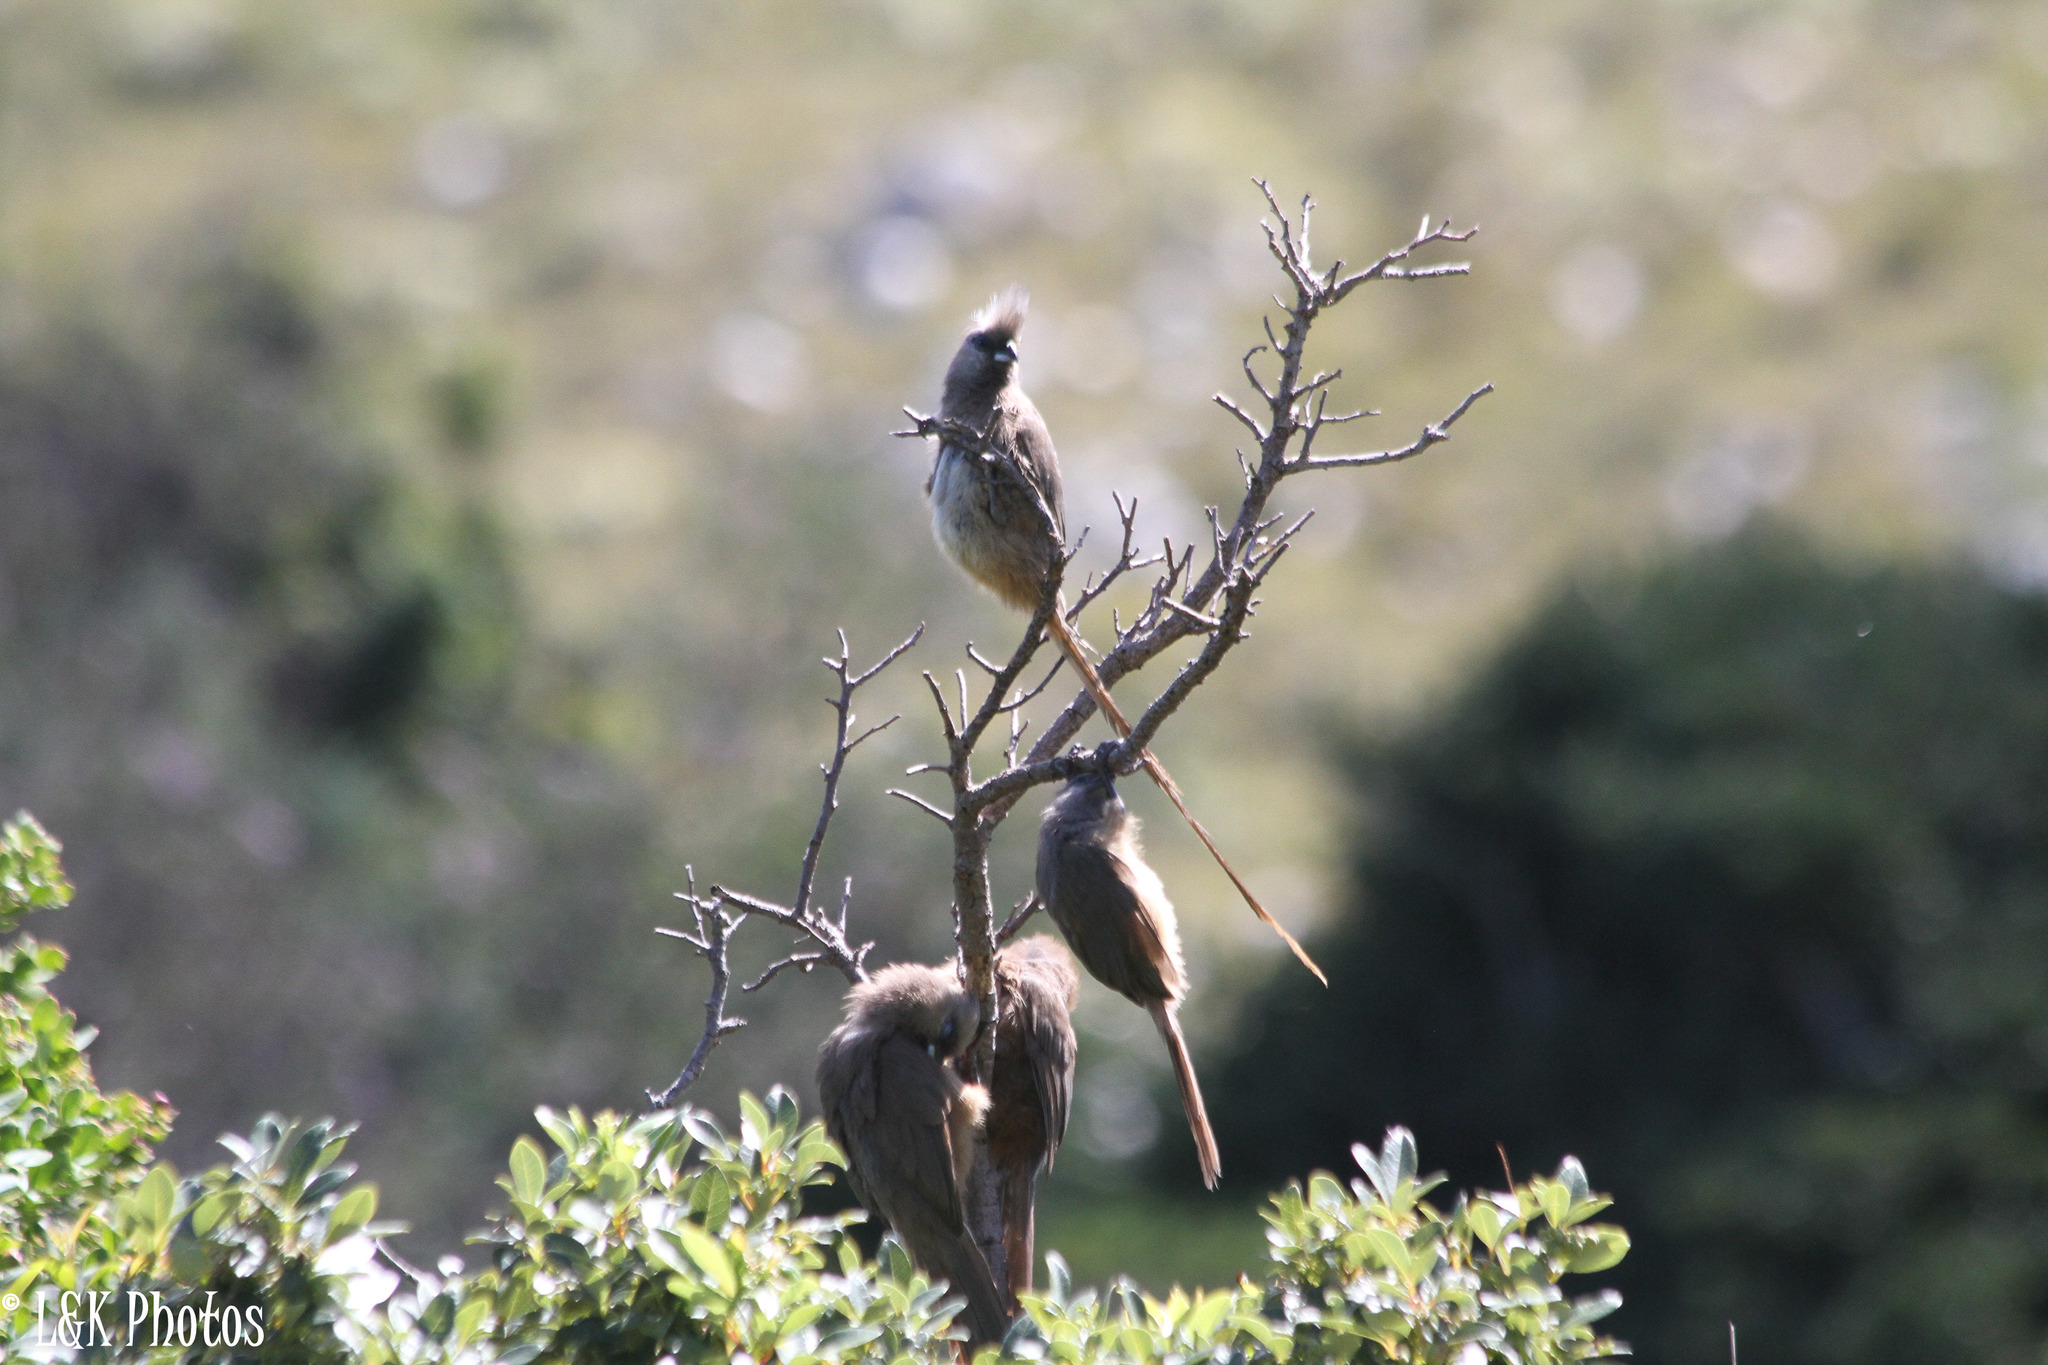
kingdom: Animalia
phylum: Chordata
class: Aves
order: Coliiformes
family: Coliidae
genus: Colius
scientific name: Colius striatus
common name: Speckled mousebird
